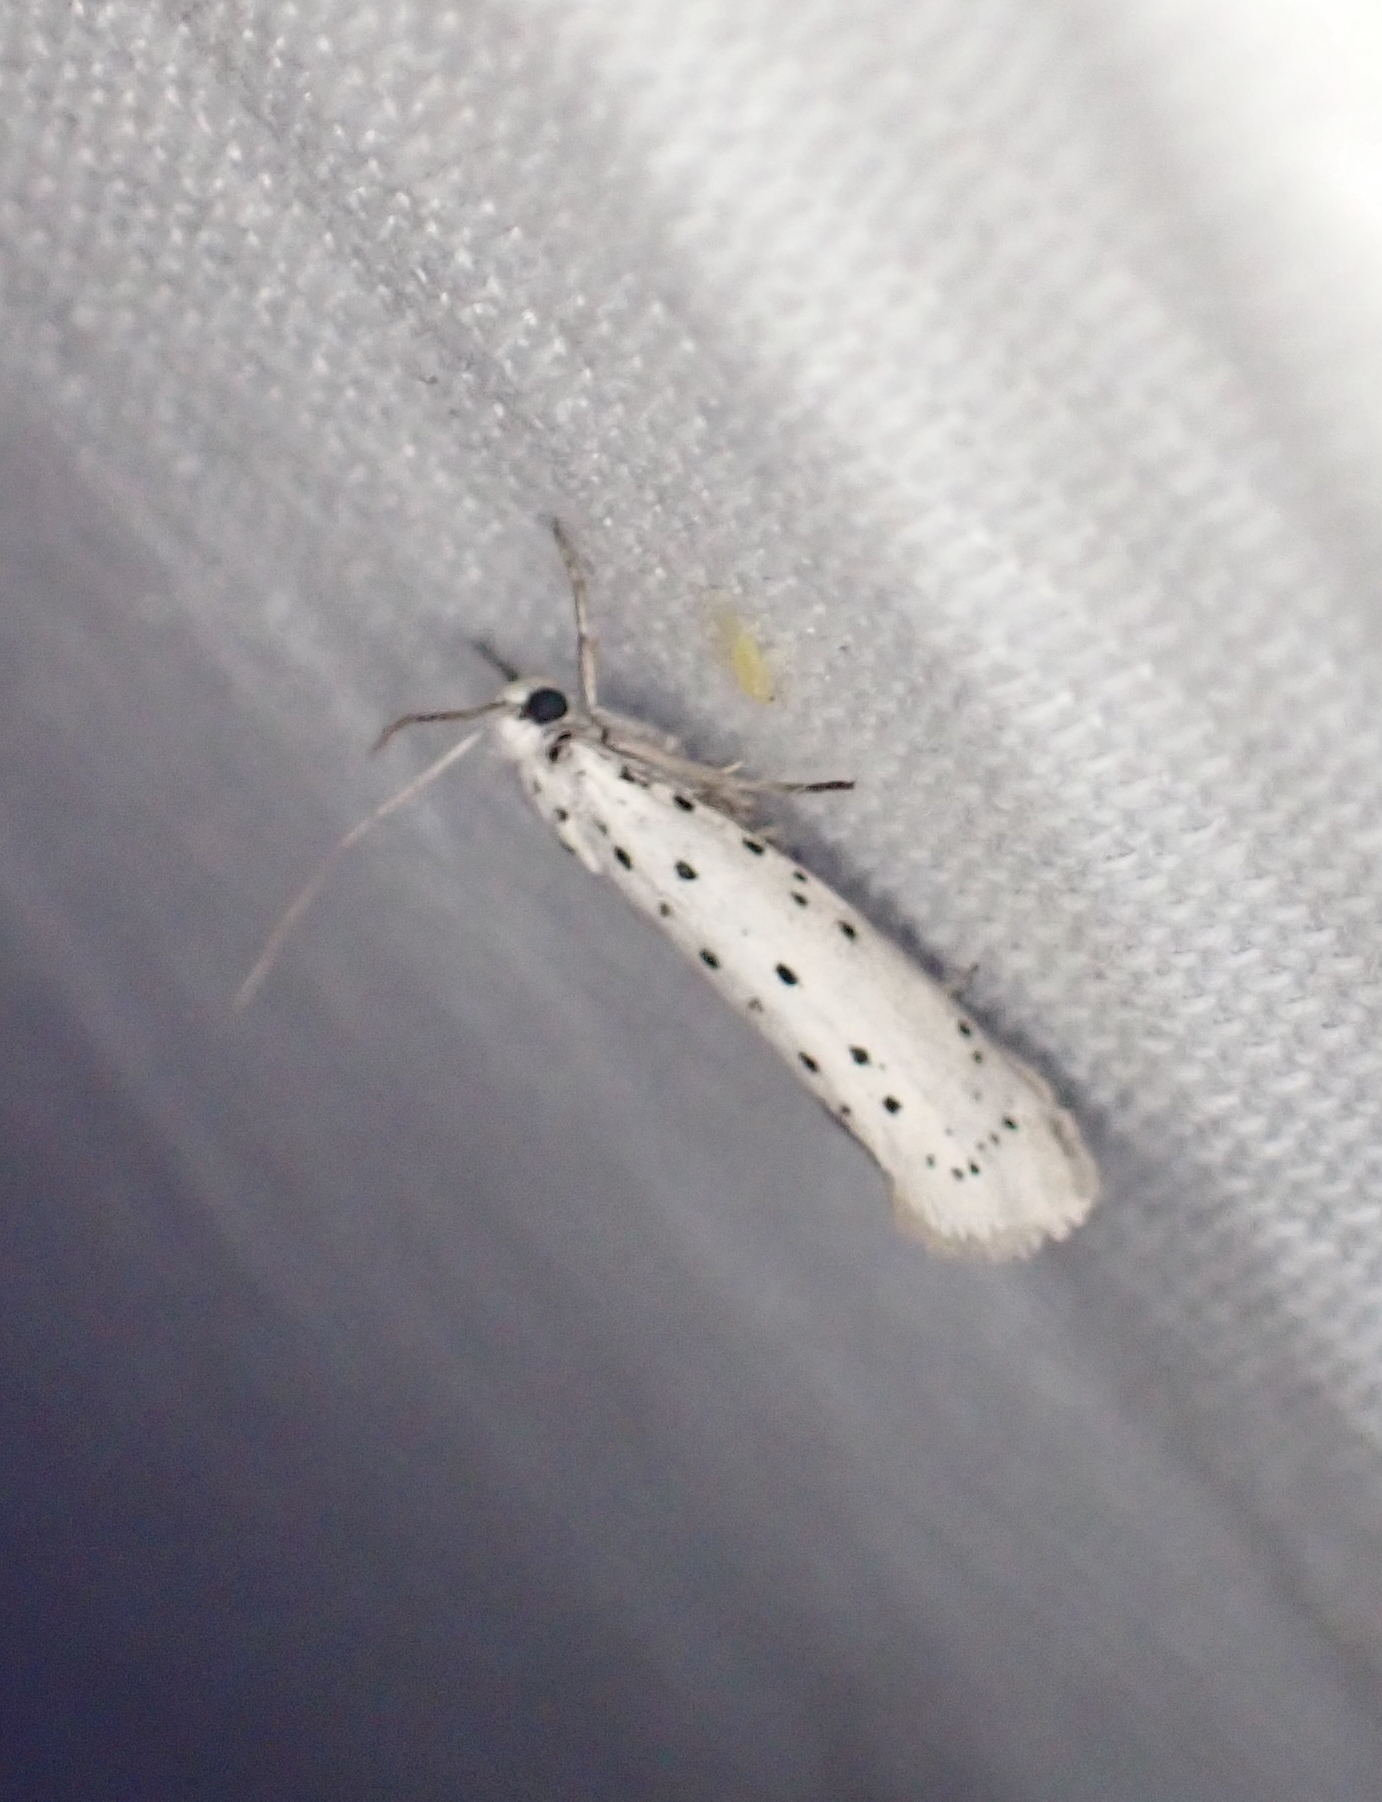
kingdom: Animalia
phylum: Arthropoda
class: Insecta
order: Lepidoptera
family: Yponomeutidae
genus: Yponomeuta
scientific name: Yponomeuta
